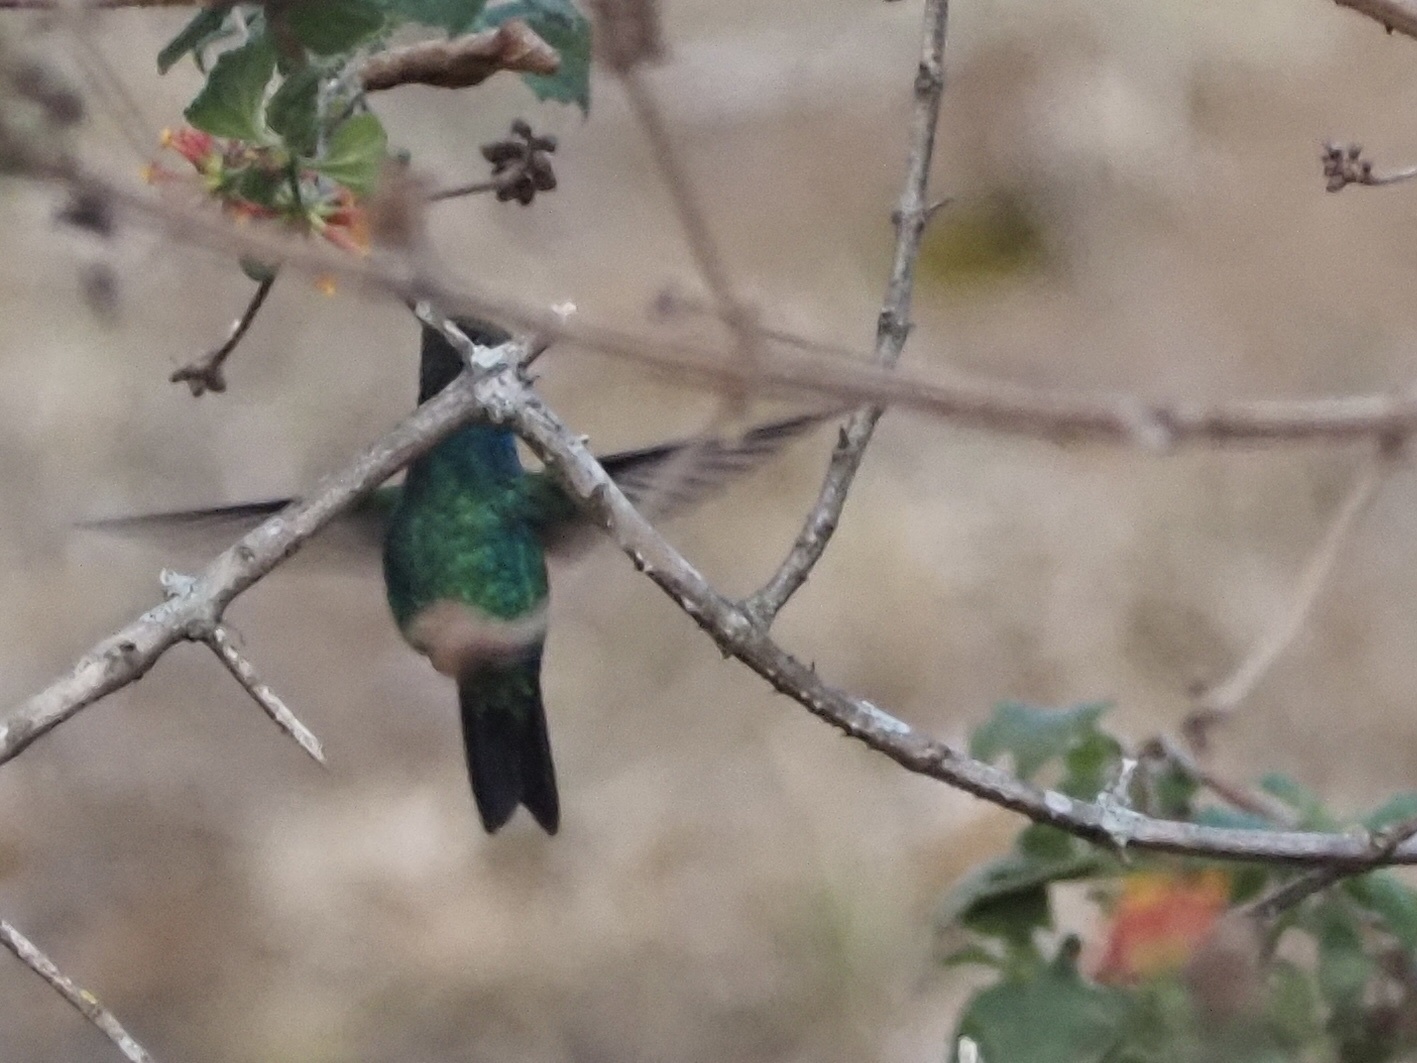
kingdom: Animalia
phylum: Chordata
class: Aves
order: Apodiformes
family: Trochilidae
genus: Chlorostilbon
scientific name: Chlorostilbon lucidus
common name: Glittering-bellied emerald
